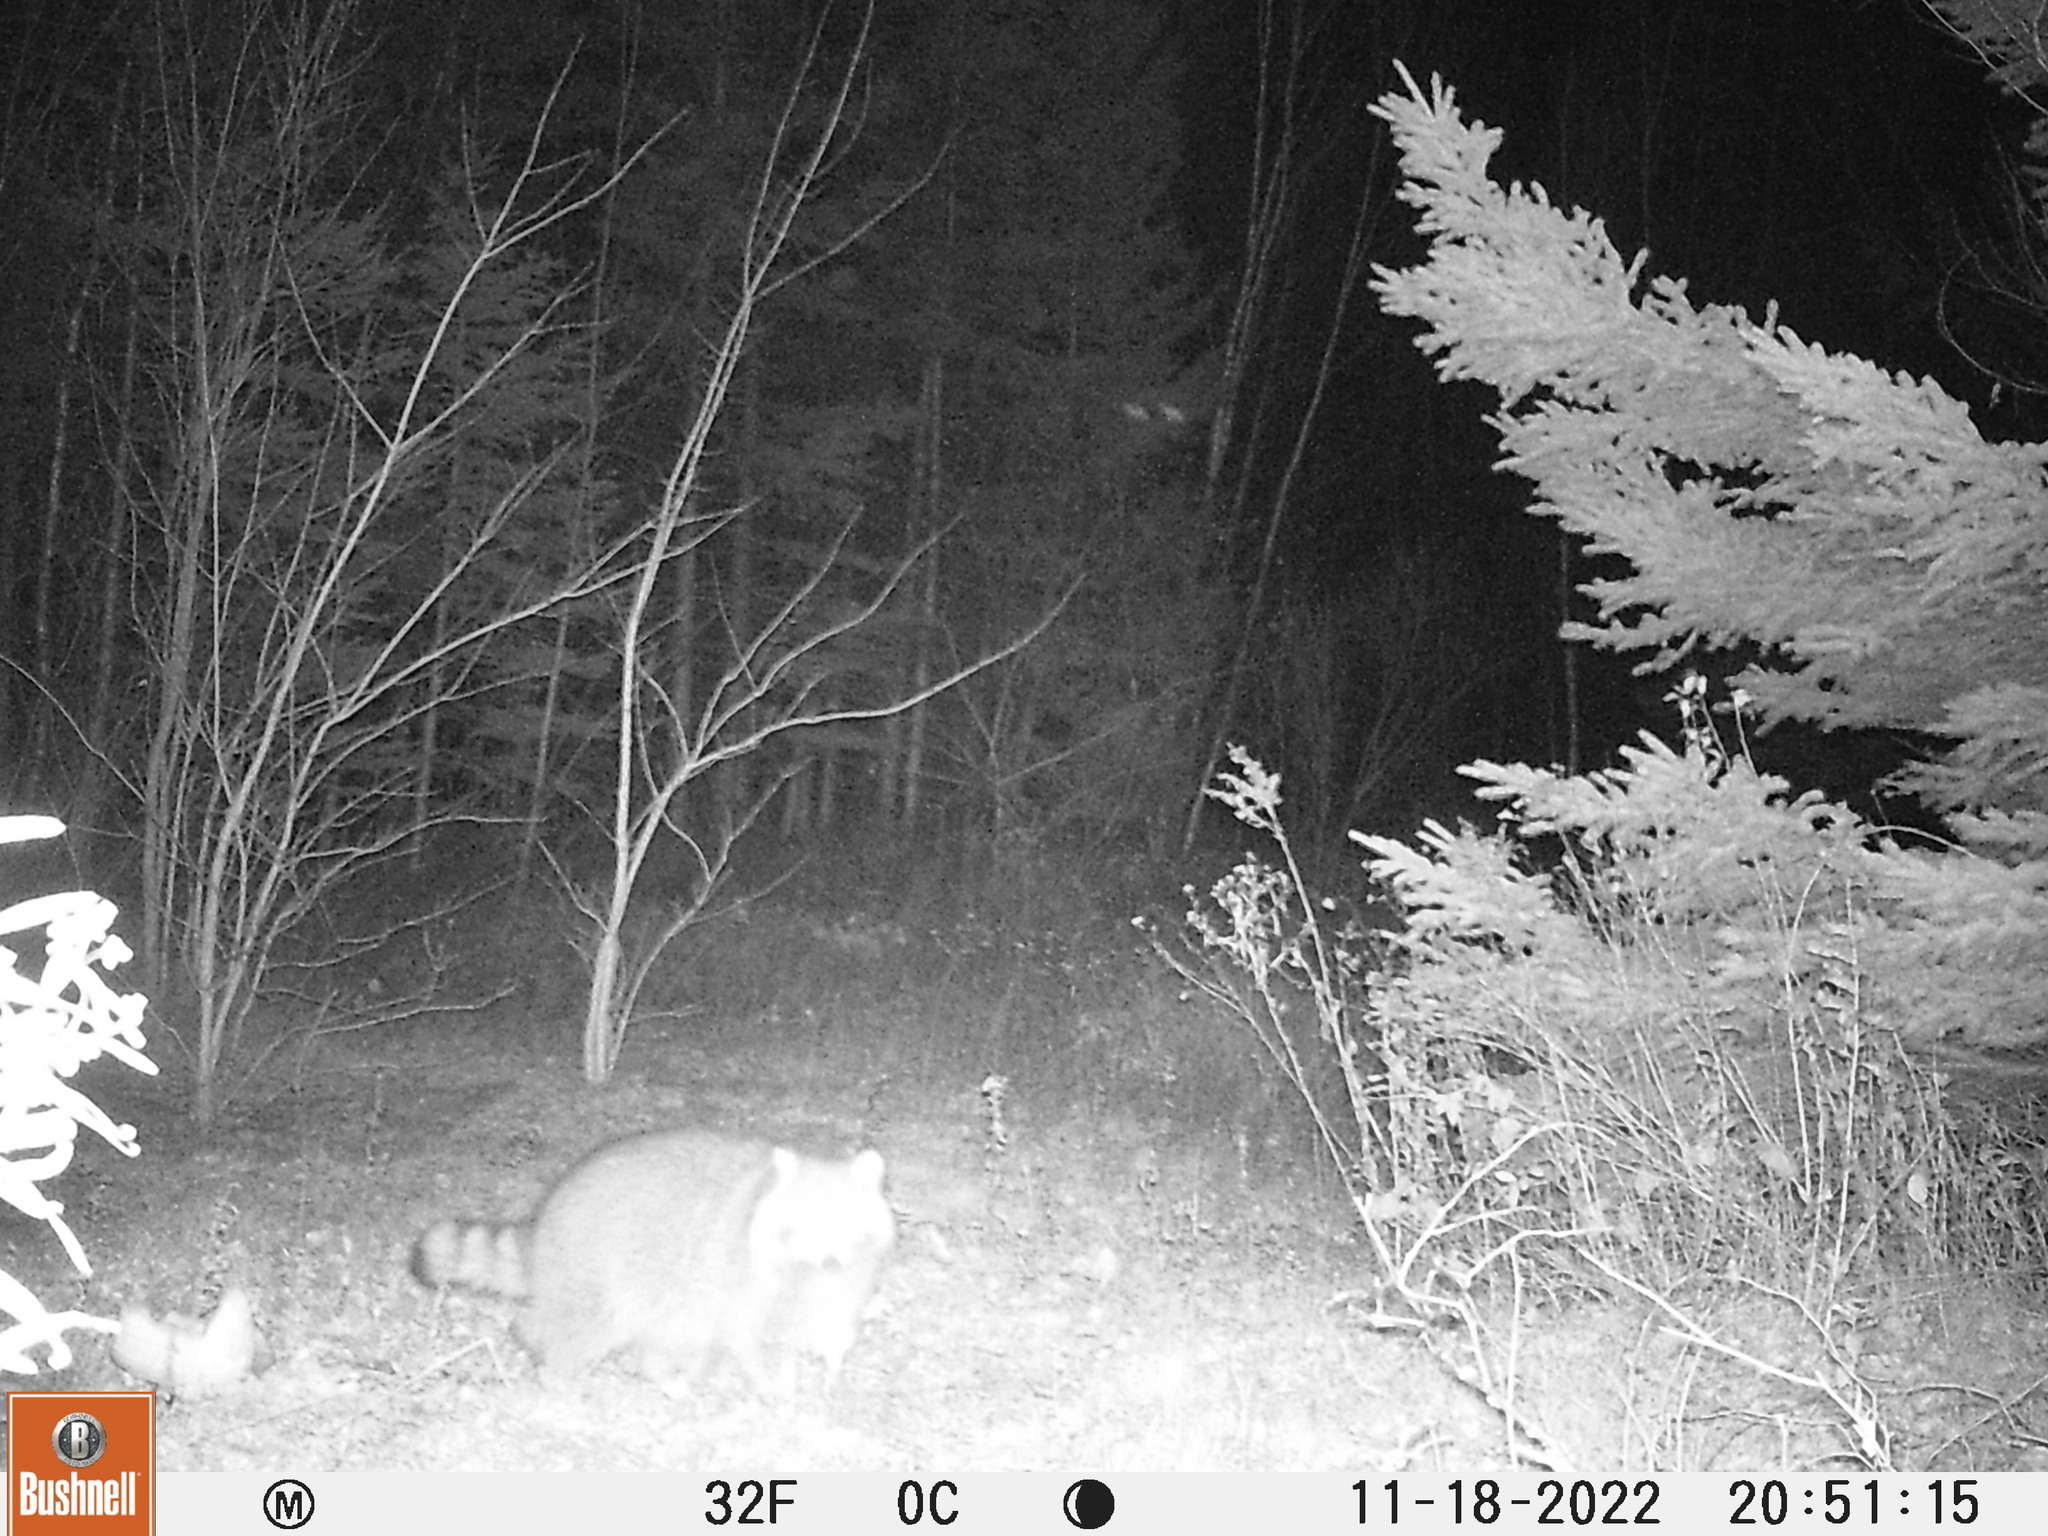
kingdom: Animalia
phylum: Chordata
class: Mammalia
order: Carnivora
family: Procyonidae
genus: Procyon
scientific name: Procyon lotor
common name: Raccoon
